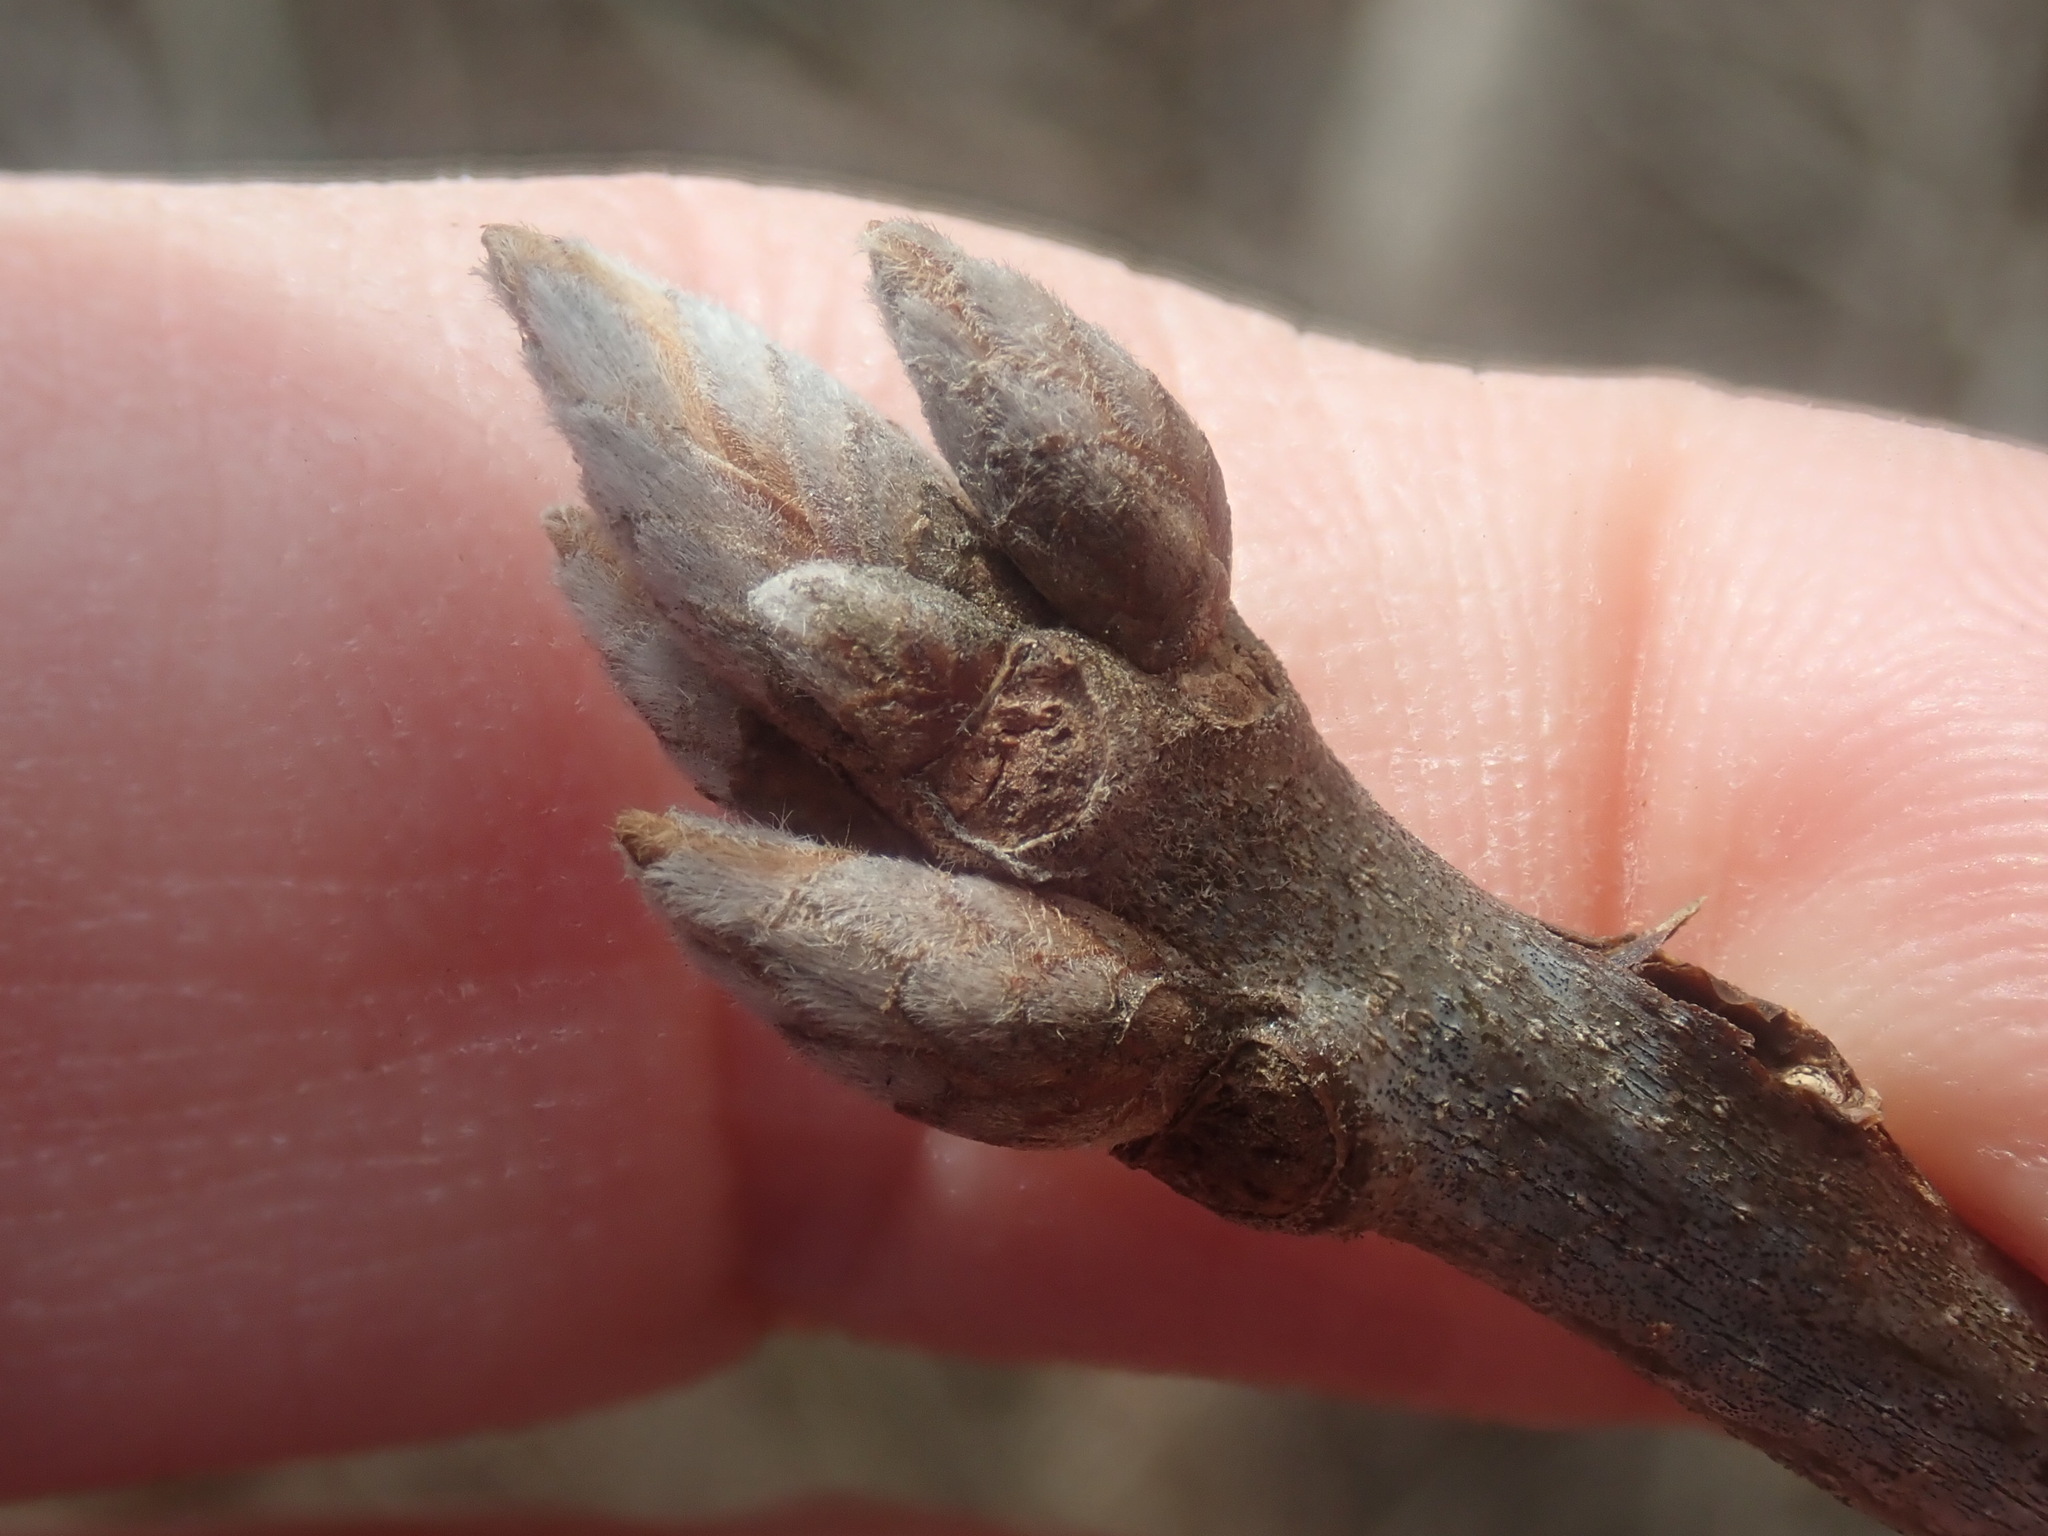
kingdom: Plantae
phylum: Tracheophyta
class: Magnoliopsida
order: Fagales
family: Fagaceae
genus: Quercus
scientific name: Quercus velutina
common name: Black oak
